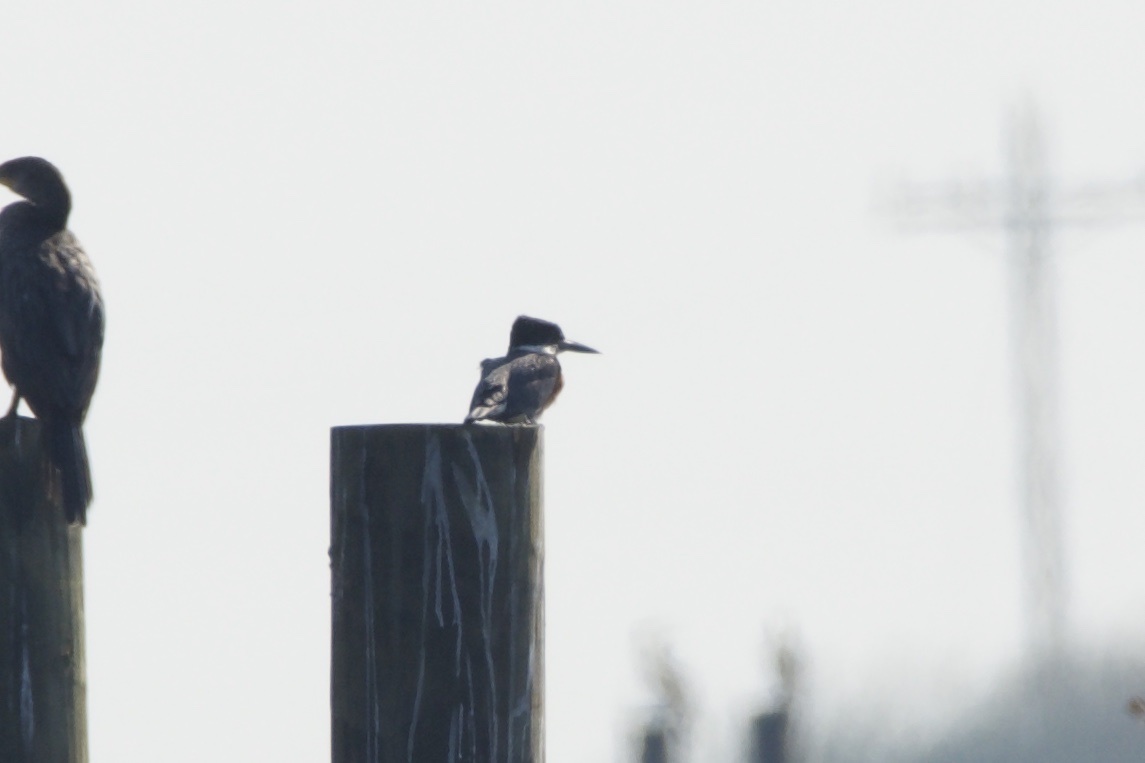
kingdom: Animalia
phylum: Chordata
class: Aves
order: Coraciiformes
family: Alcedinidae
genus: Megaceryle
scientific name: Megaceryle alcyon
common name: Belted kingfisher
